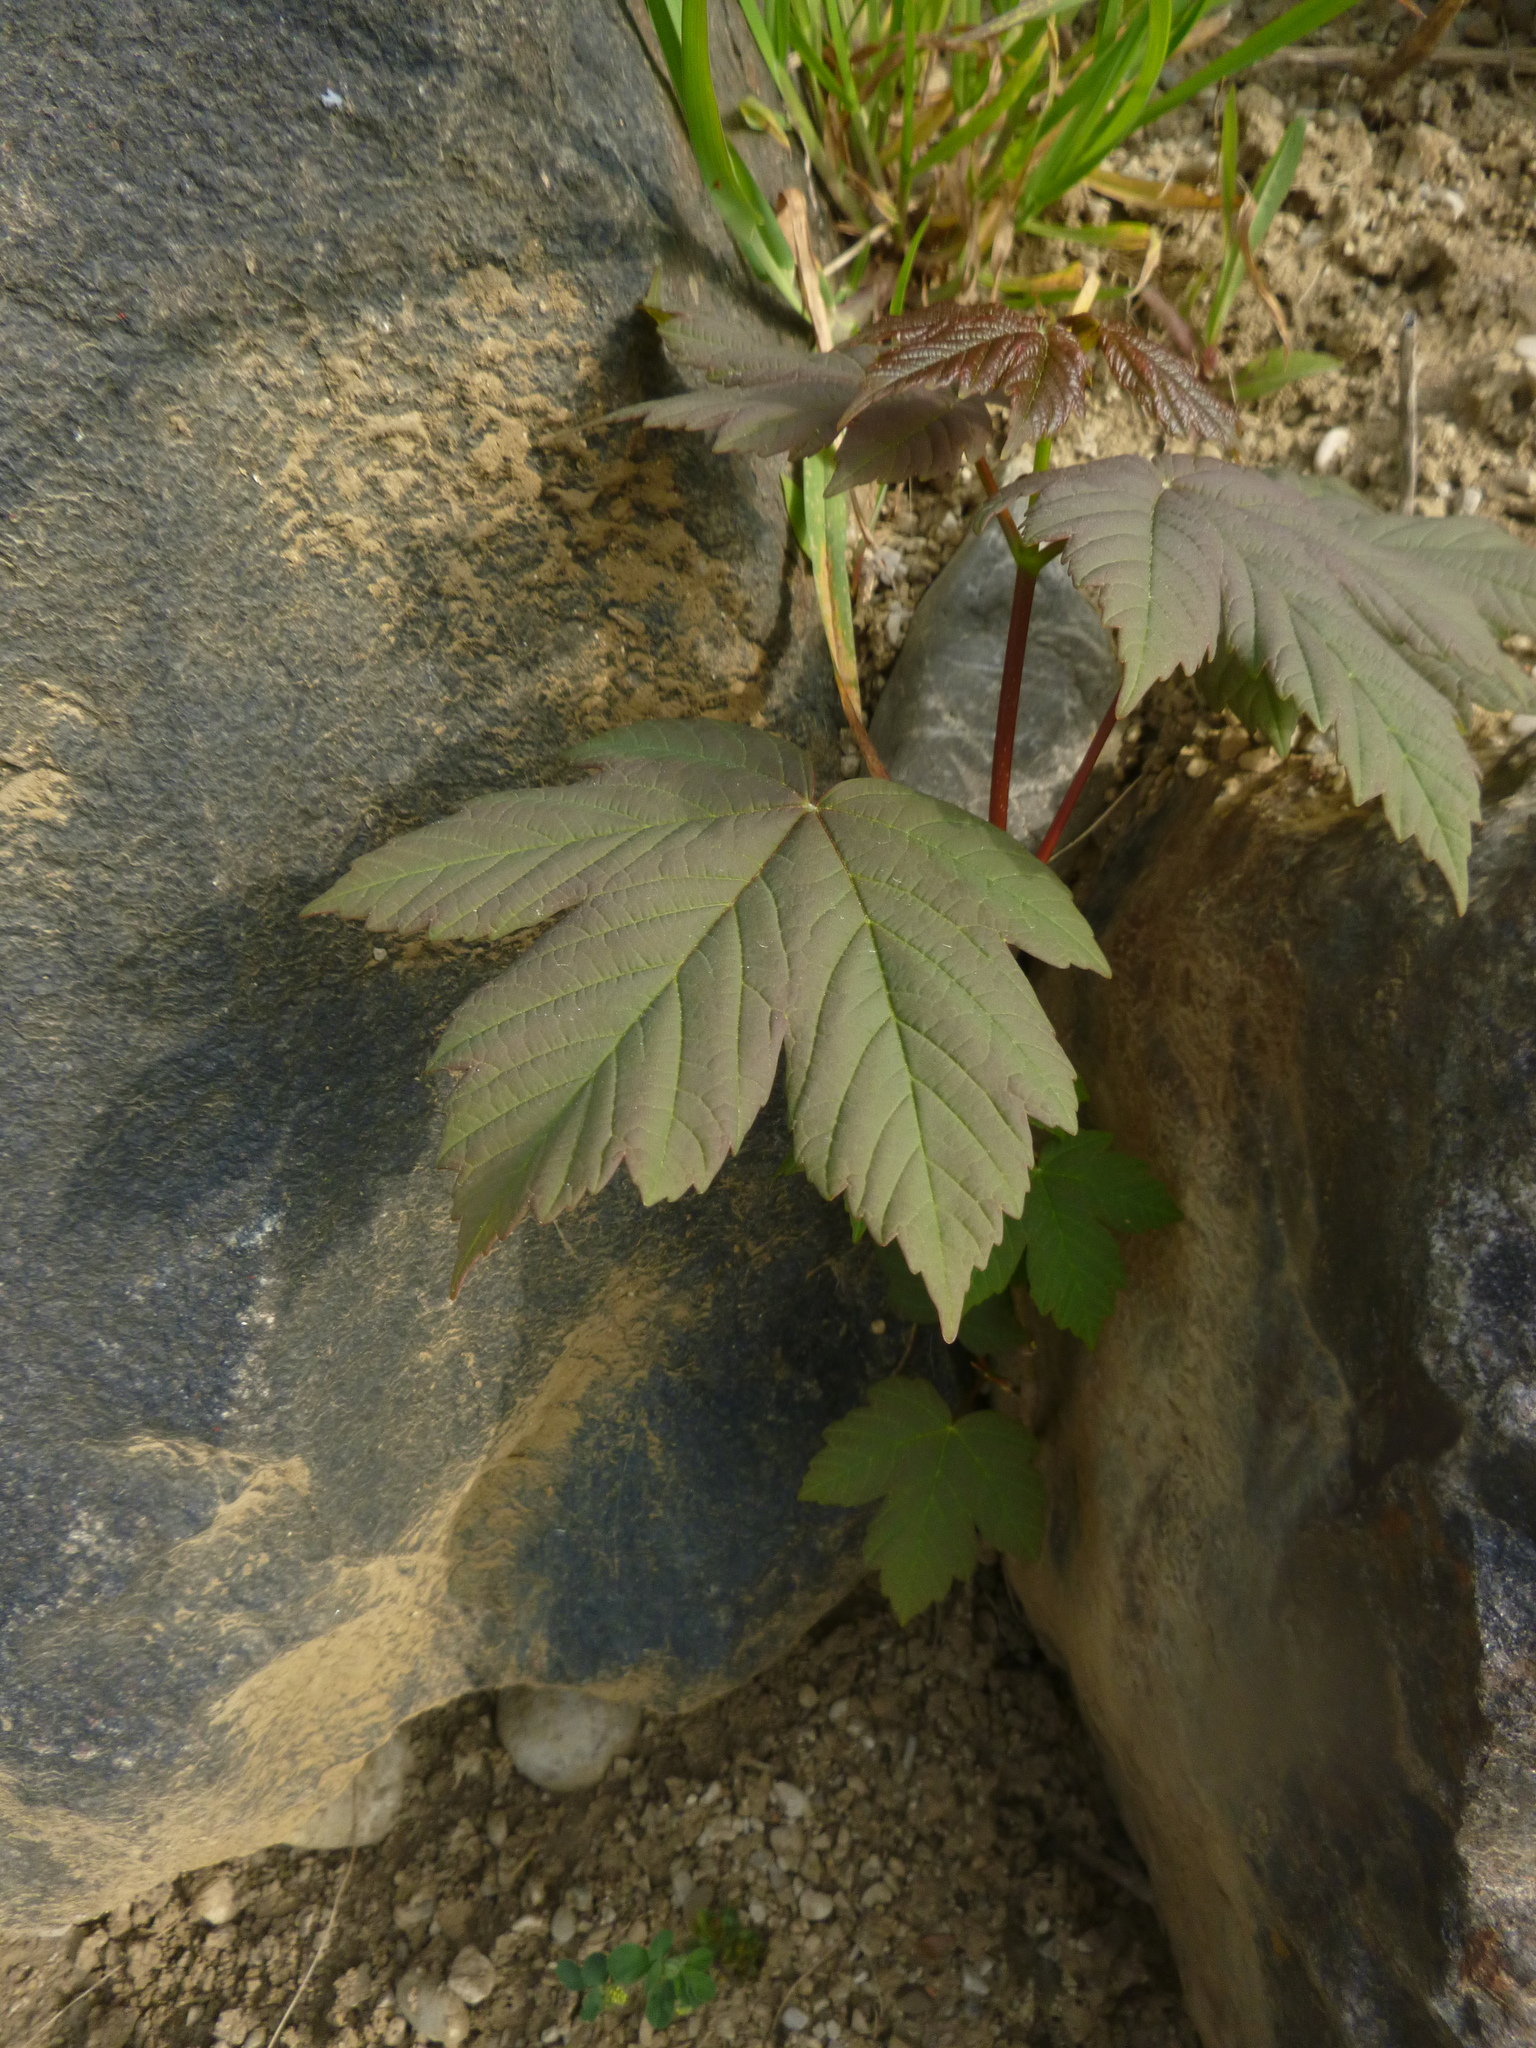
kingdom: Plantae
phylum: Tracheophyta
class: Magnoliopsida
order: Sapindales
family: Sapindaceae
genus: Acer
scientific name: Acer pseudoplatanus
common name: Sycamore
